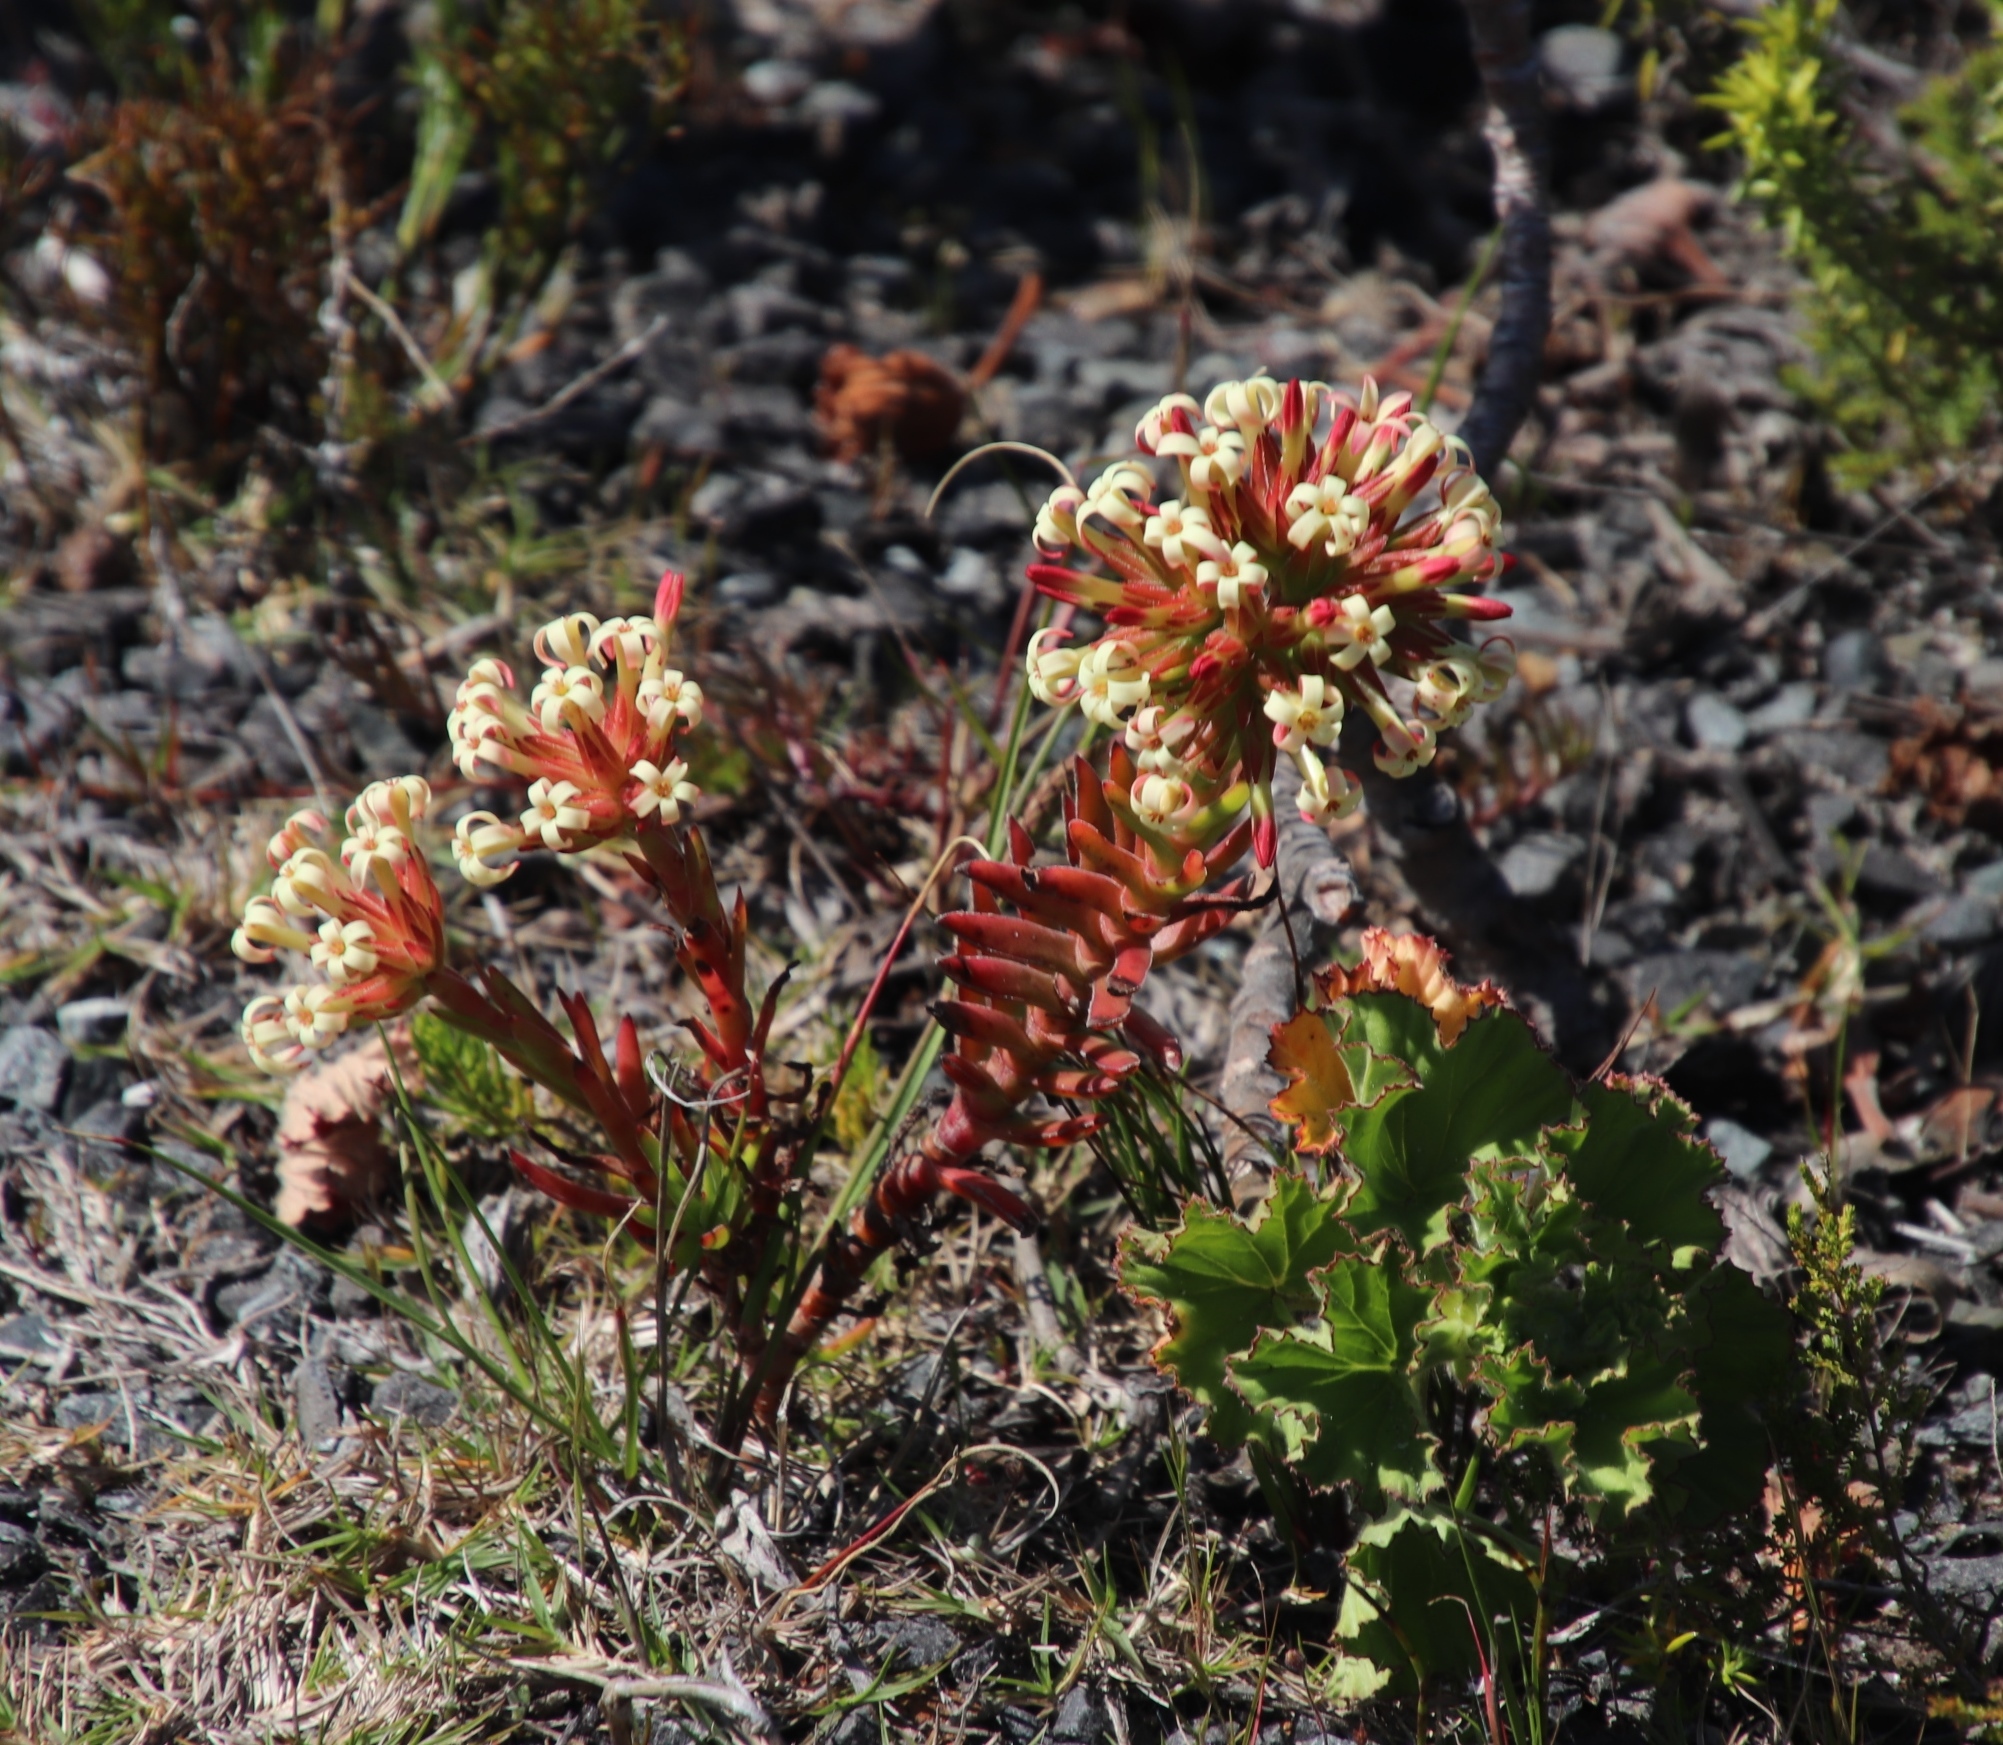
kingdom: Plantae
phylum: Tracheophyta
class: Magnoliopsida
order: Saxifragales
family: Crassulaceae
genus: Crassula
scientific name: Crassula fascicularis
